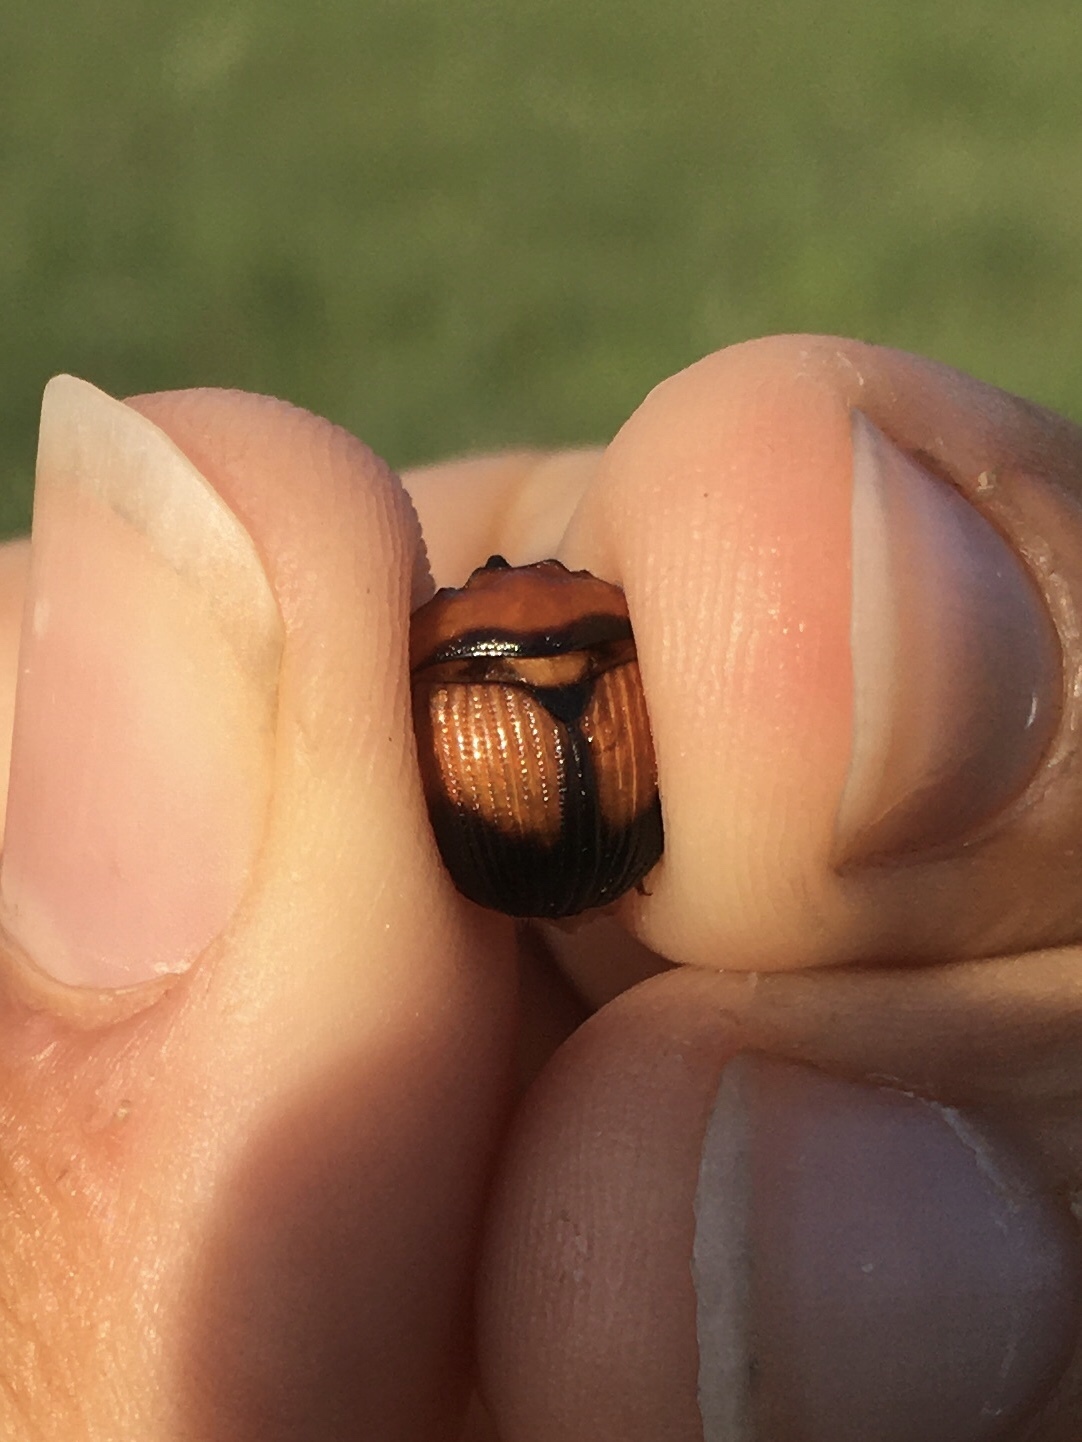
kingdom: Animalia
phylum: Arthropoda
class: Insecta
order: Coleoptera
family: Geotrupidae
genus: Bolbocerosoma
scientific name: Bolbocerosoma bruneri
